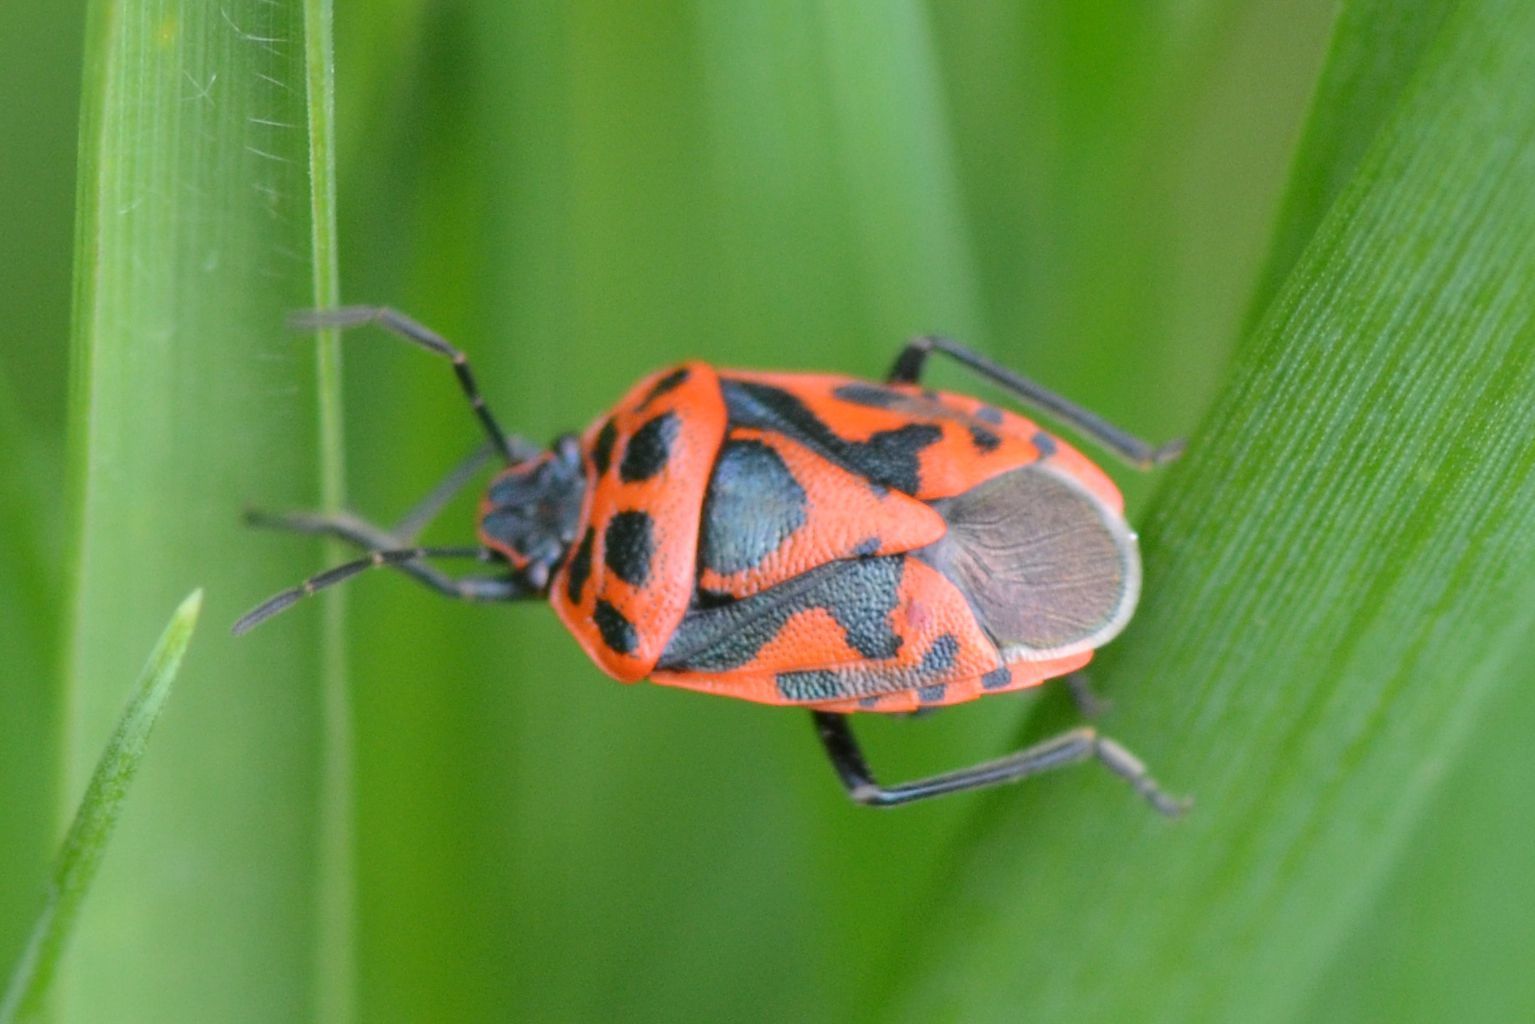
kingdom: Animalia
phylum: Arthropoda
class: Insecta
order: Hemiptera
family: Pentatomidae
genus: Eurydema
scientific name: Eurydema ornata
